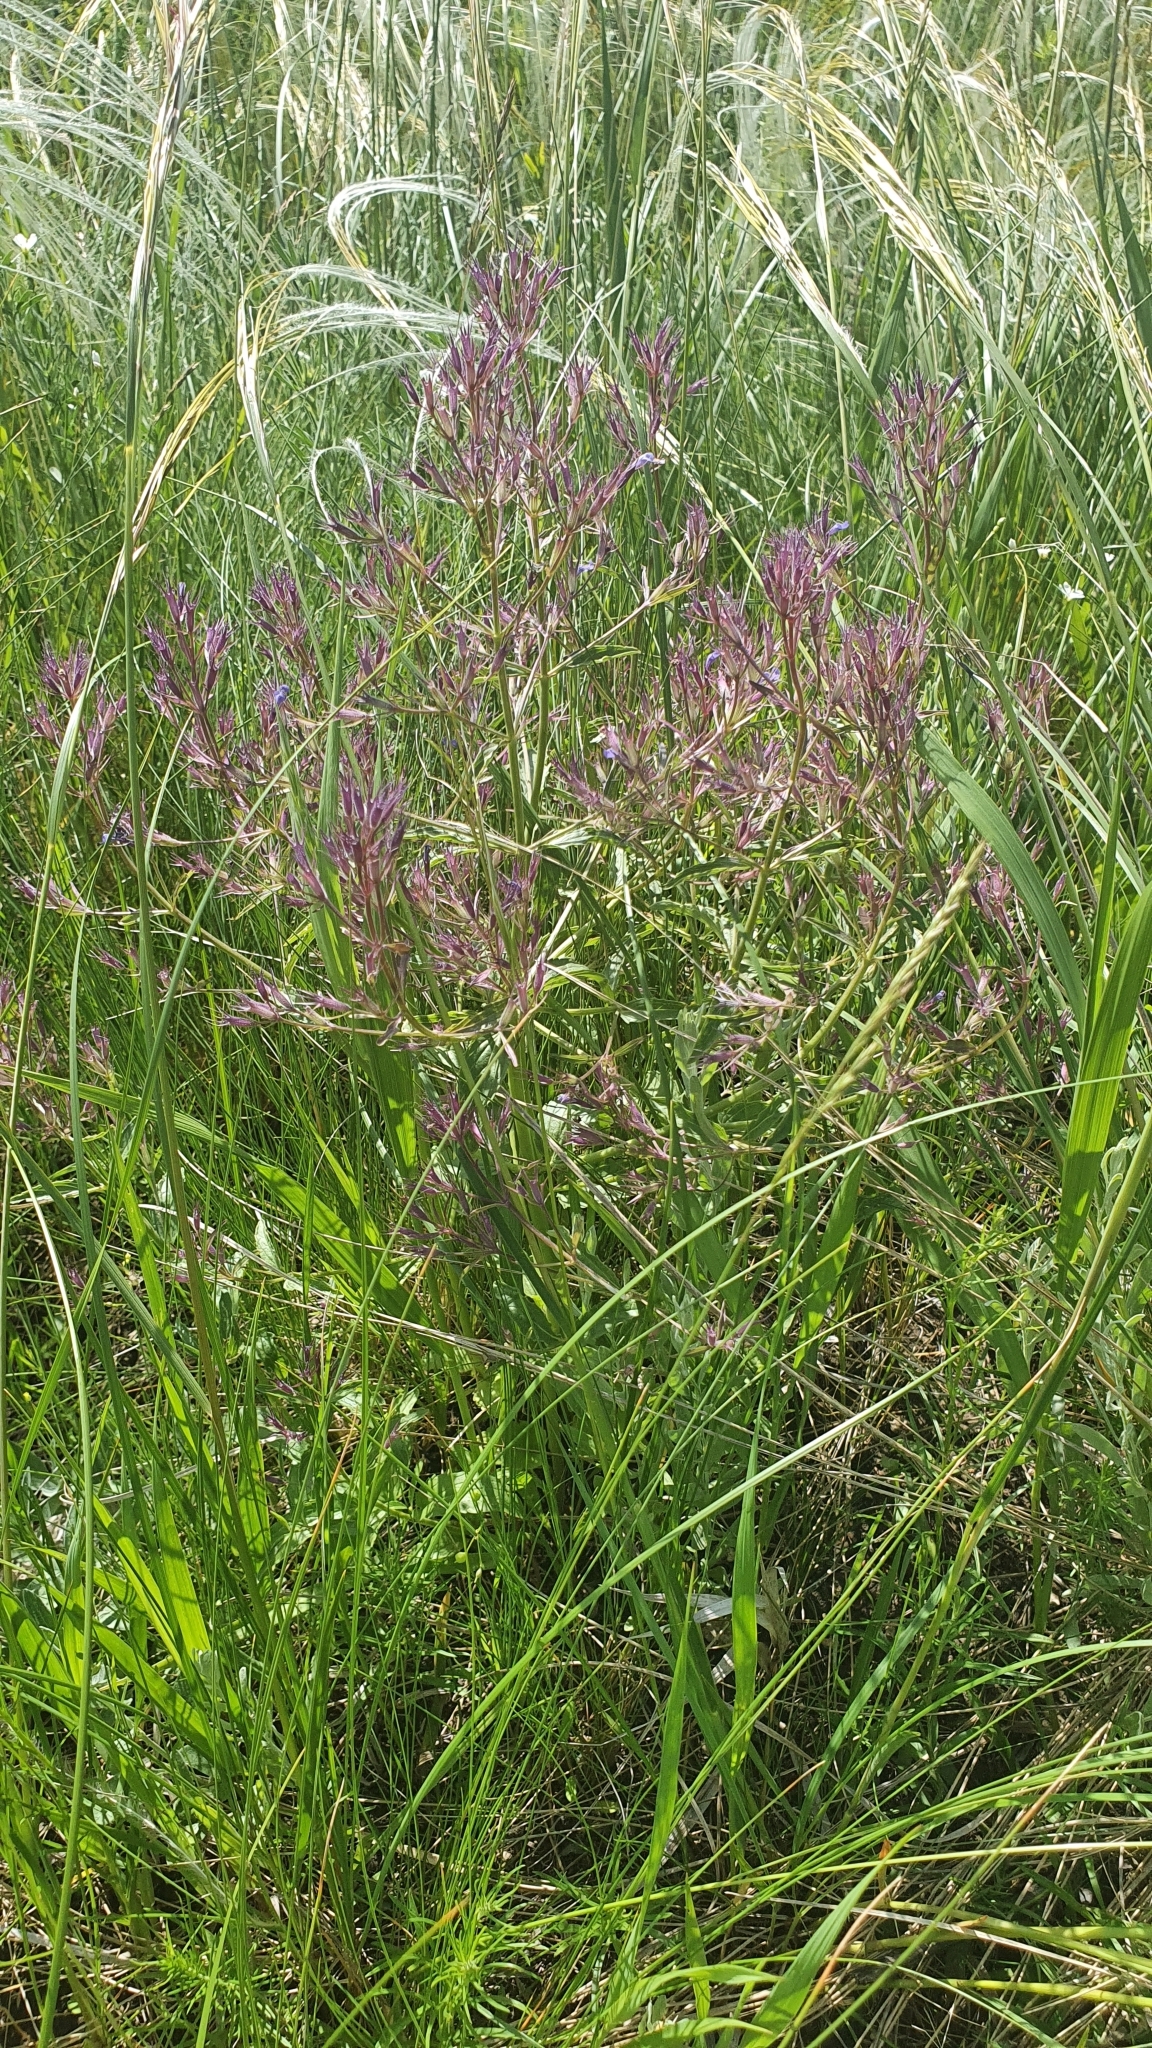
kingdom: Plantae
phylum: Tracheophyta
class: Magnoliopsida
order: Lamiales
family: Lamiaceae
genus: Nepeta
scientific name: Nepeta ucranica
